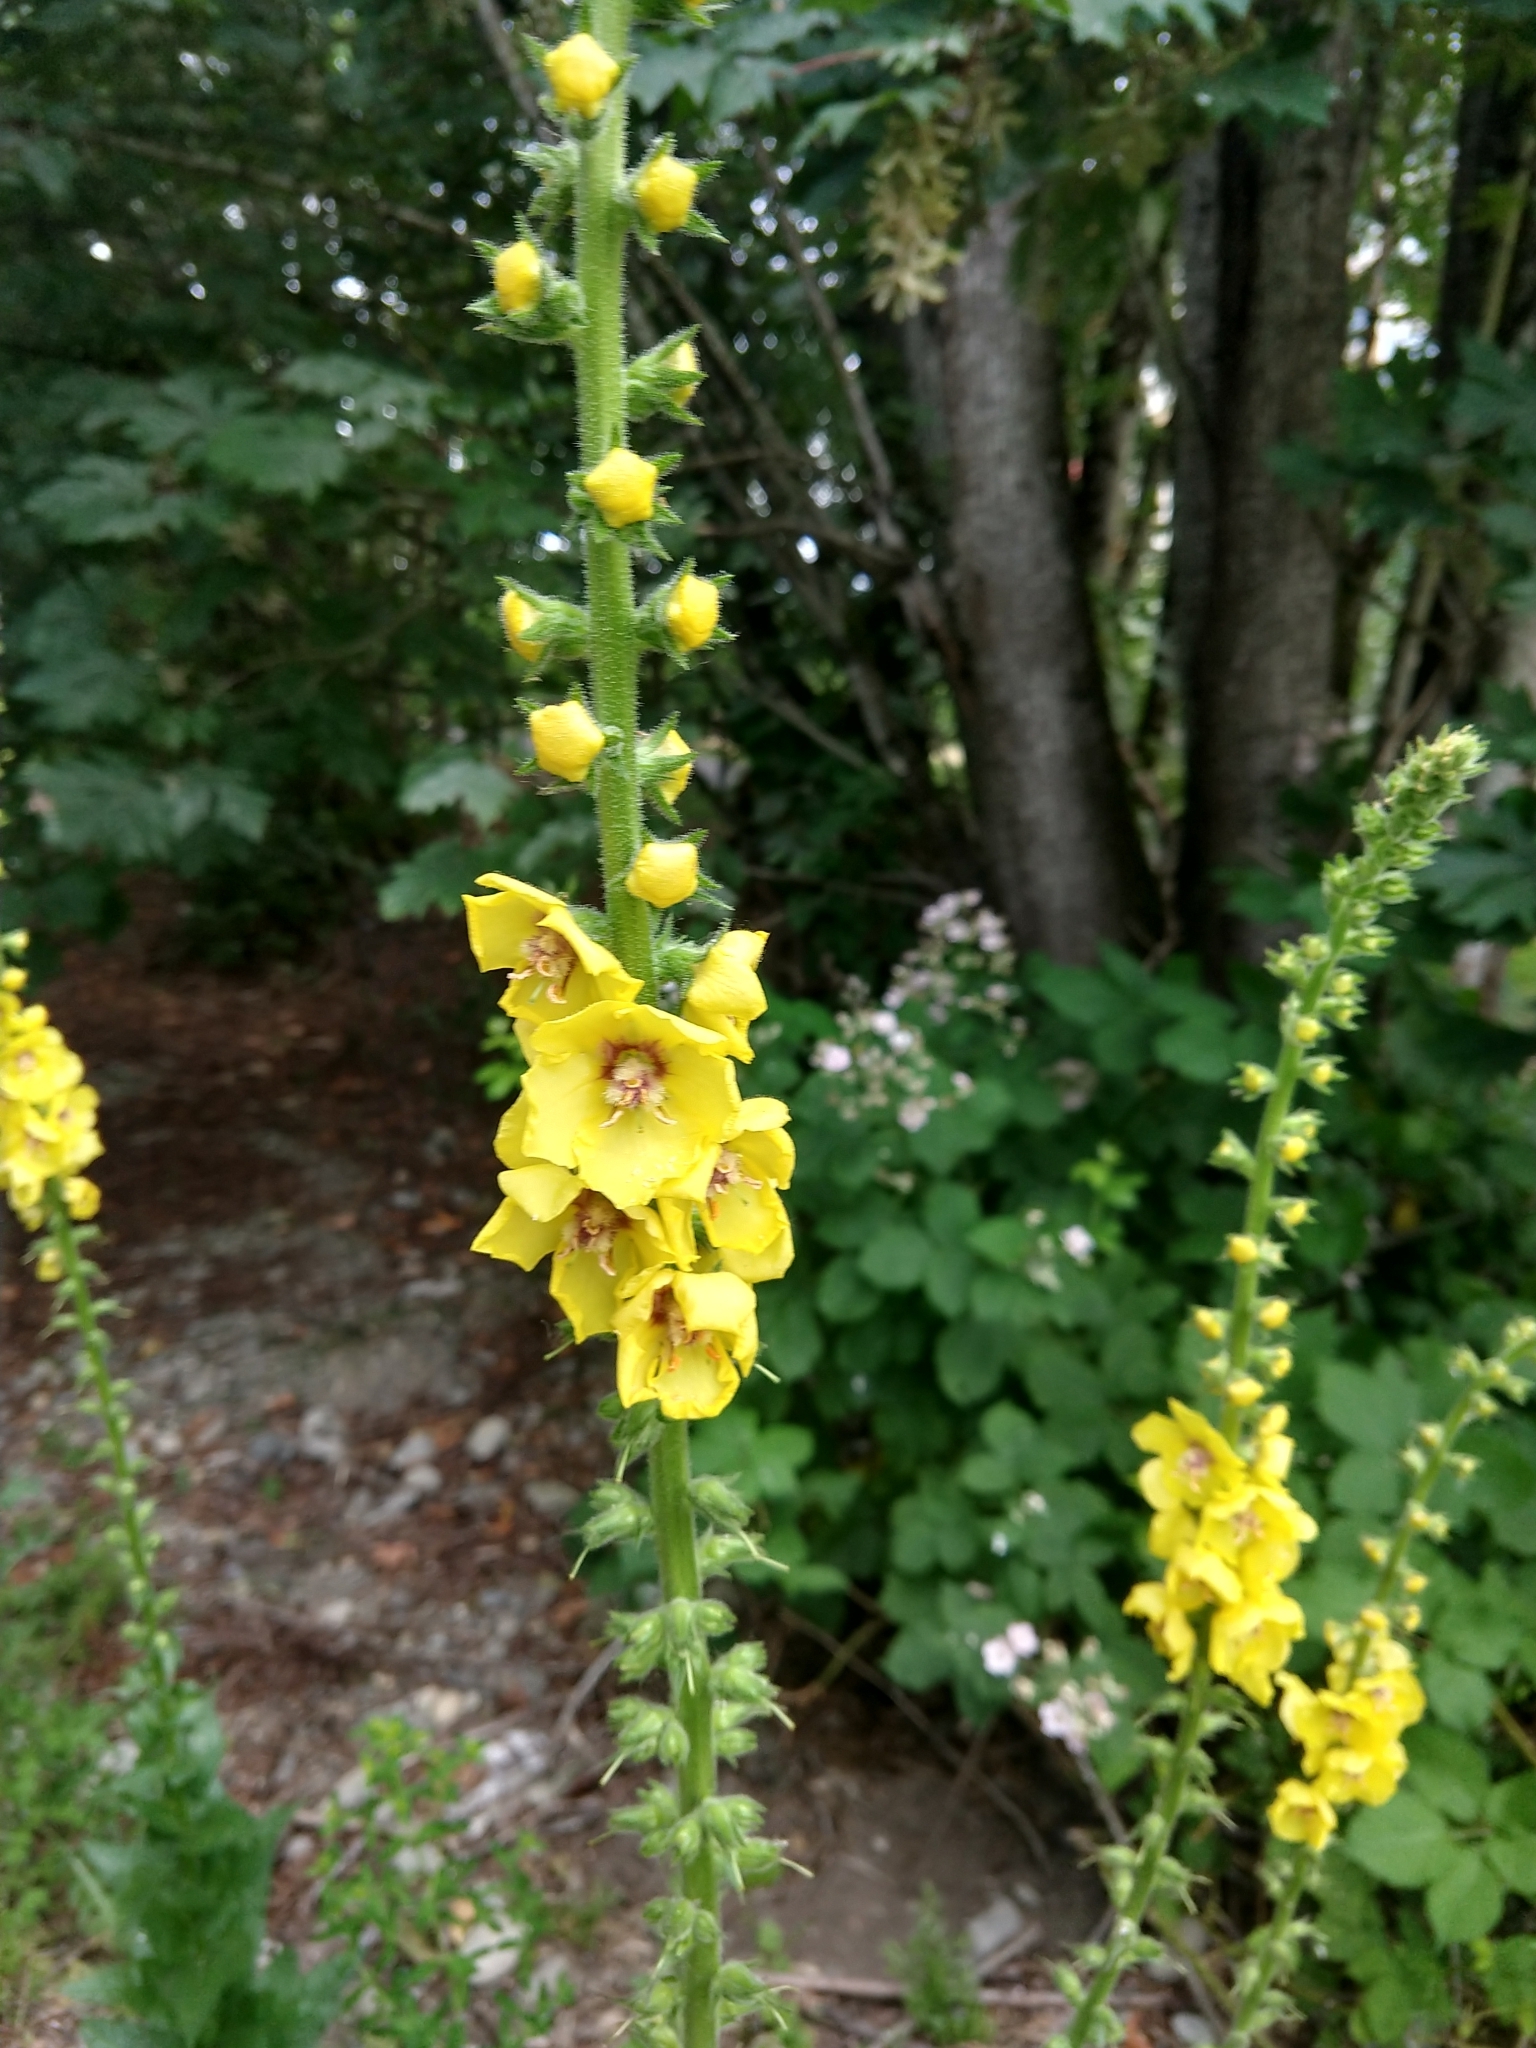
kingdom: Plantae
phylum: Tracheophyta
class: Magnoliopsida
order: Lamiales
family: Scrophulariaceae
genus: Verbascum
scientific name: Verbascum virgatum
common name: Twiggy mullein
